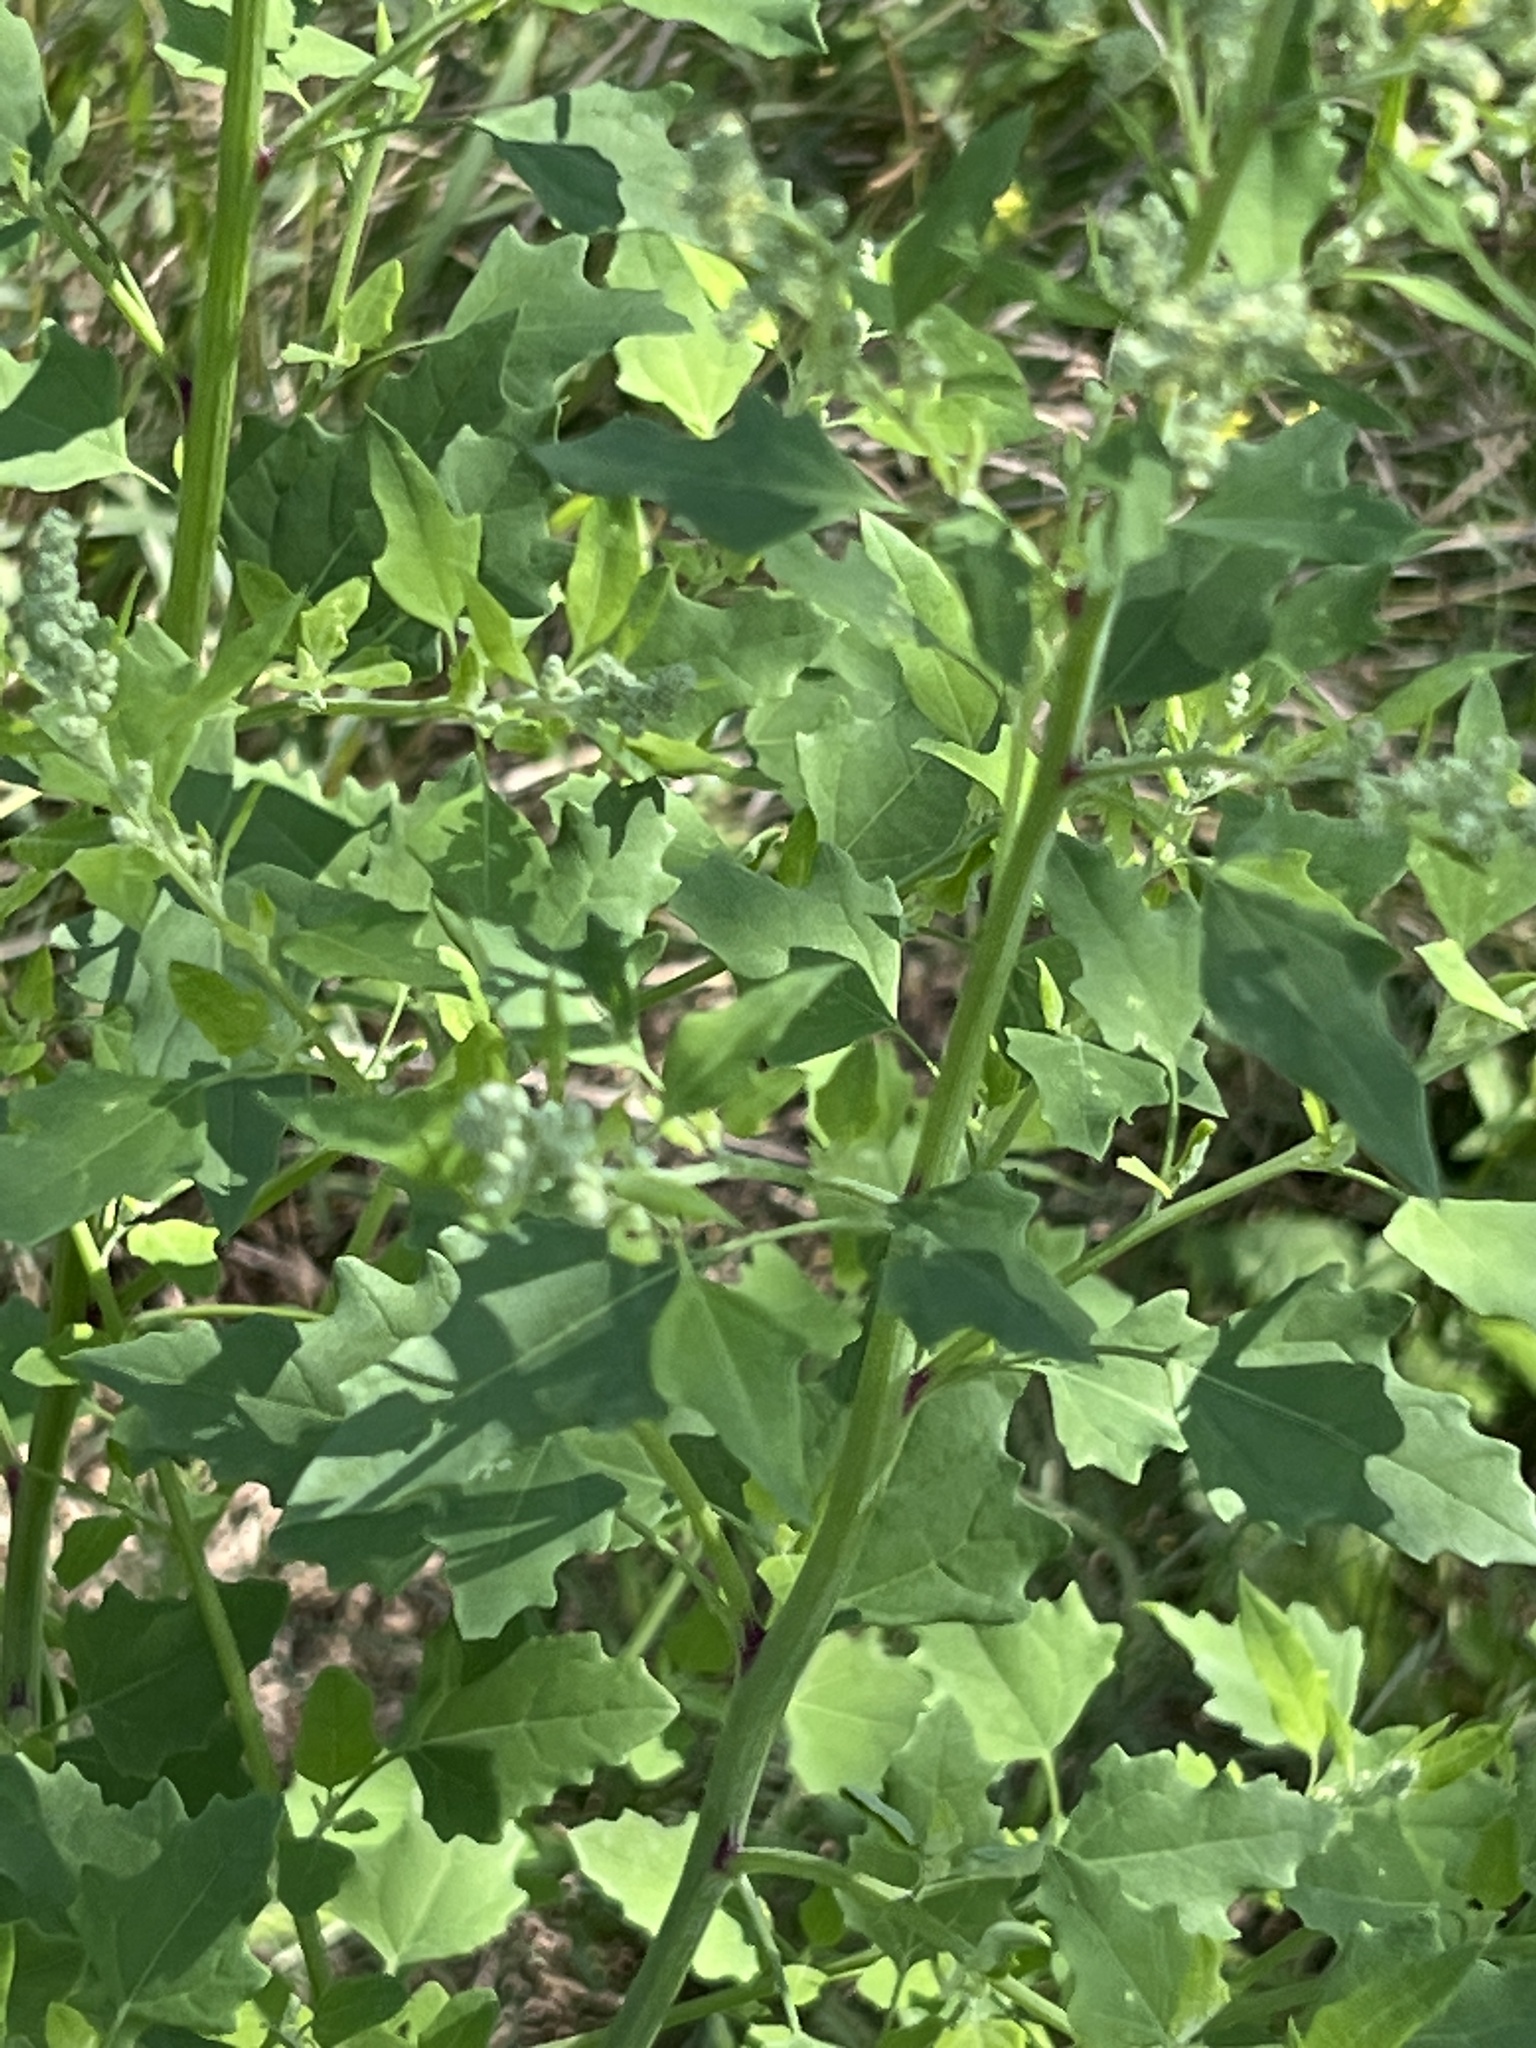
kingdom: Plantae
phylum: Tracheophyta
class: Magnoliopsida
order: Caryophyllales
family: Amaranthaceae
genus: Chenopodium
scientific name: Chenopodium album
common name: Fat-hen
